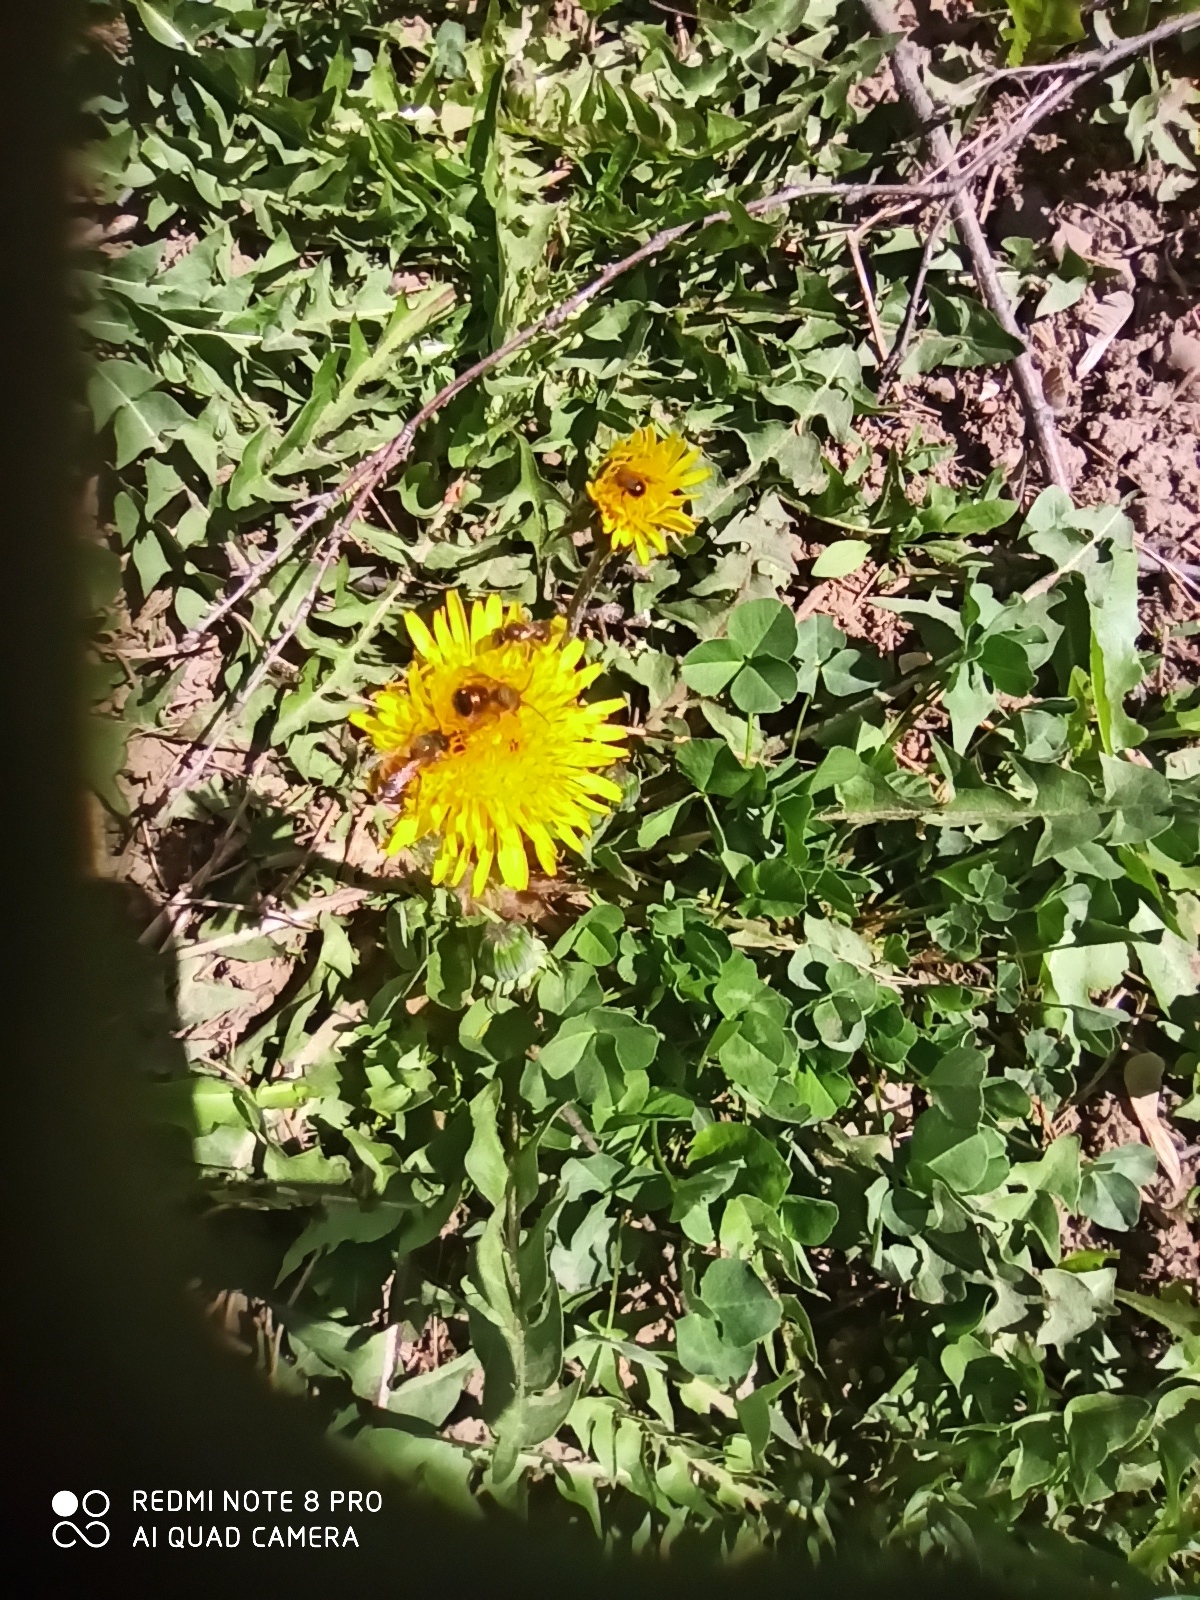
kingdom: Plantae
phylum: Tracheophyta
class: Magnoliopsida
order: Asterales
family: Asteraceae
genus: Taraxacum
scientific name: Taraxacum officinale
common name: Common dandelion
